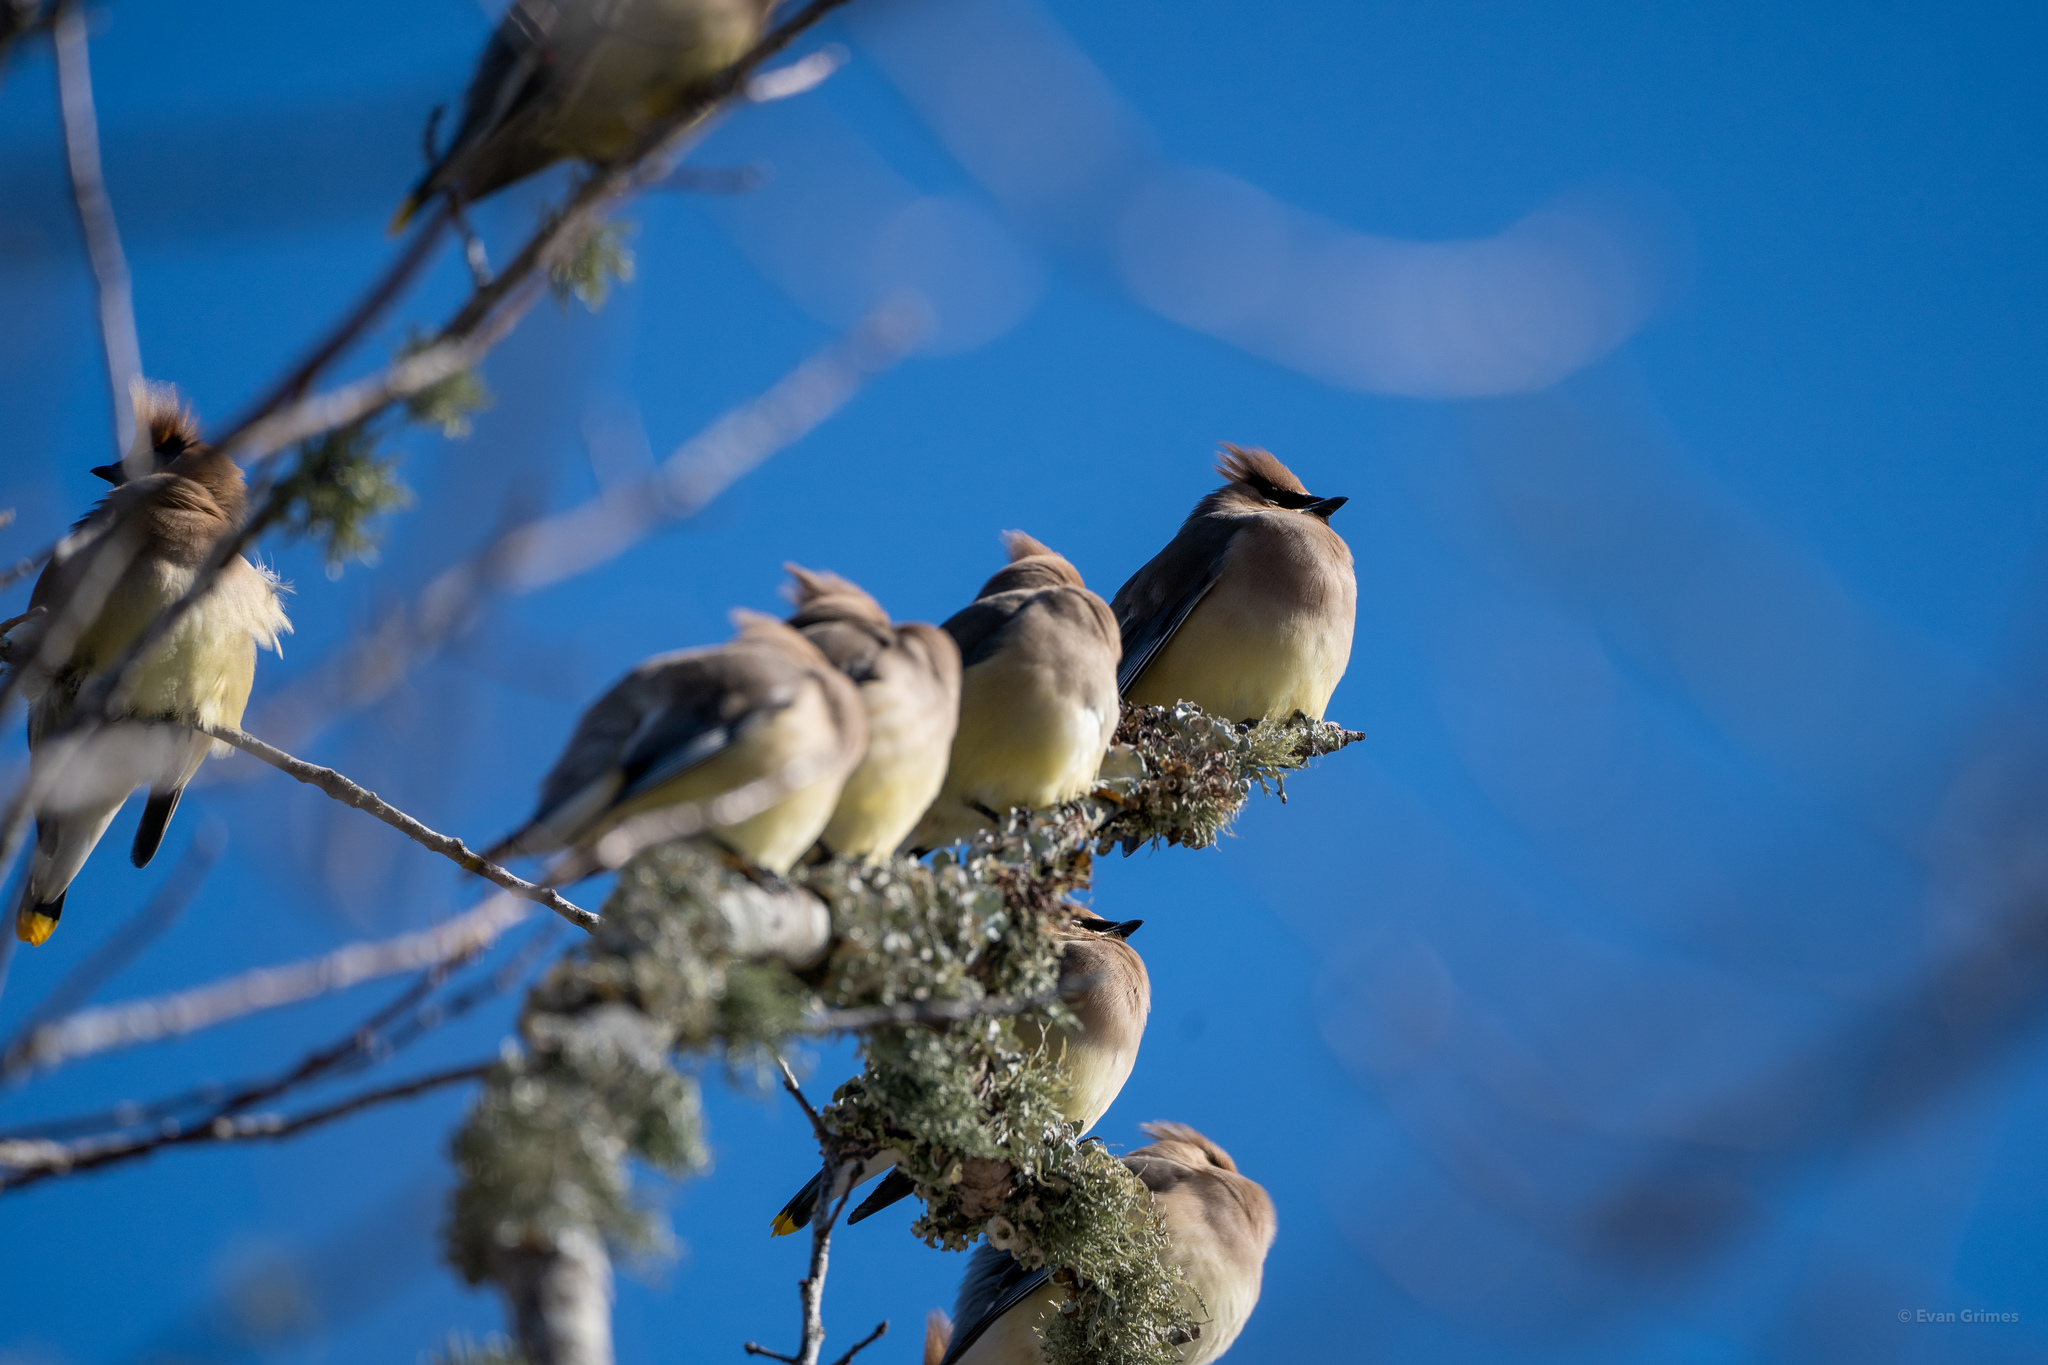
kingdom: Animalia
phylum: Chordata
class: Aves
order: Passeriformes
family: Bombycillidae
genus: Bombycilla
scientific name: Bombycilla cedrorum
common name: Cedar waxwing
